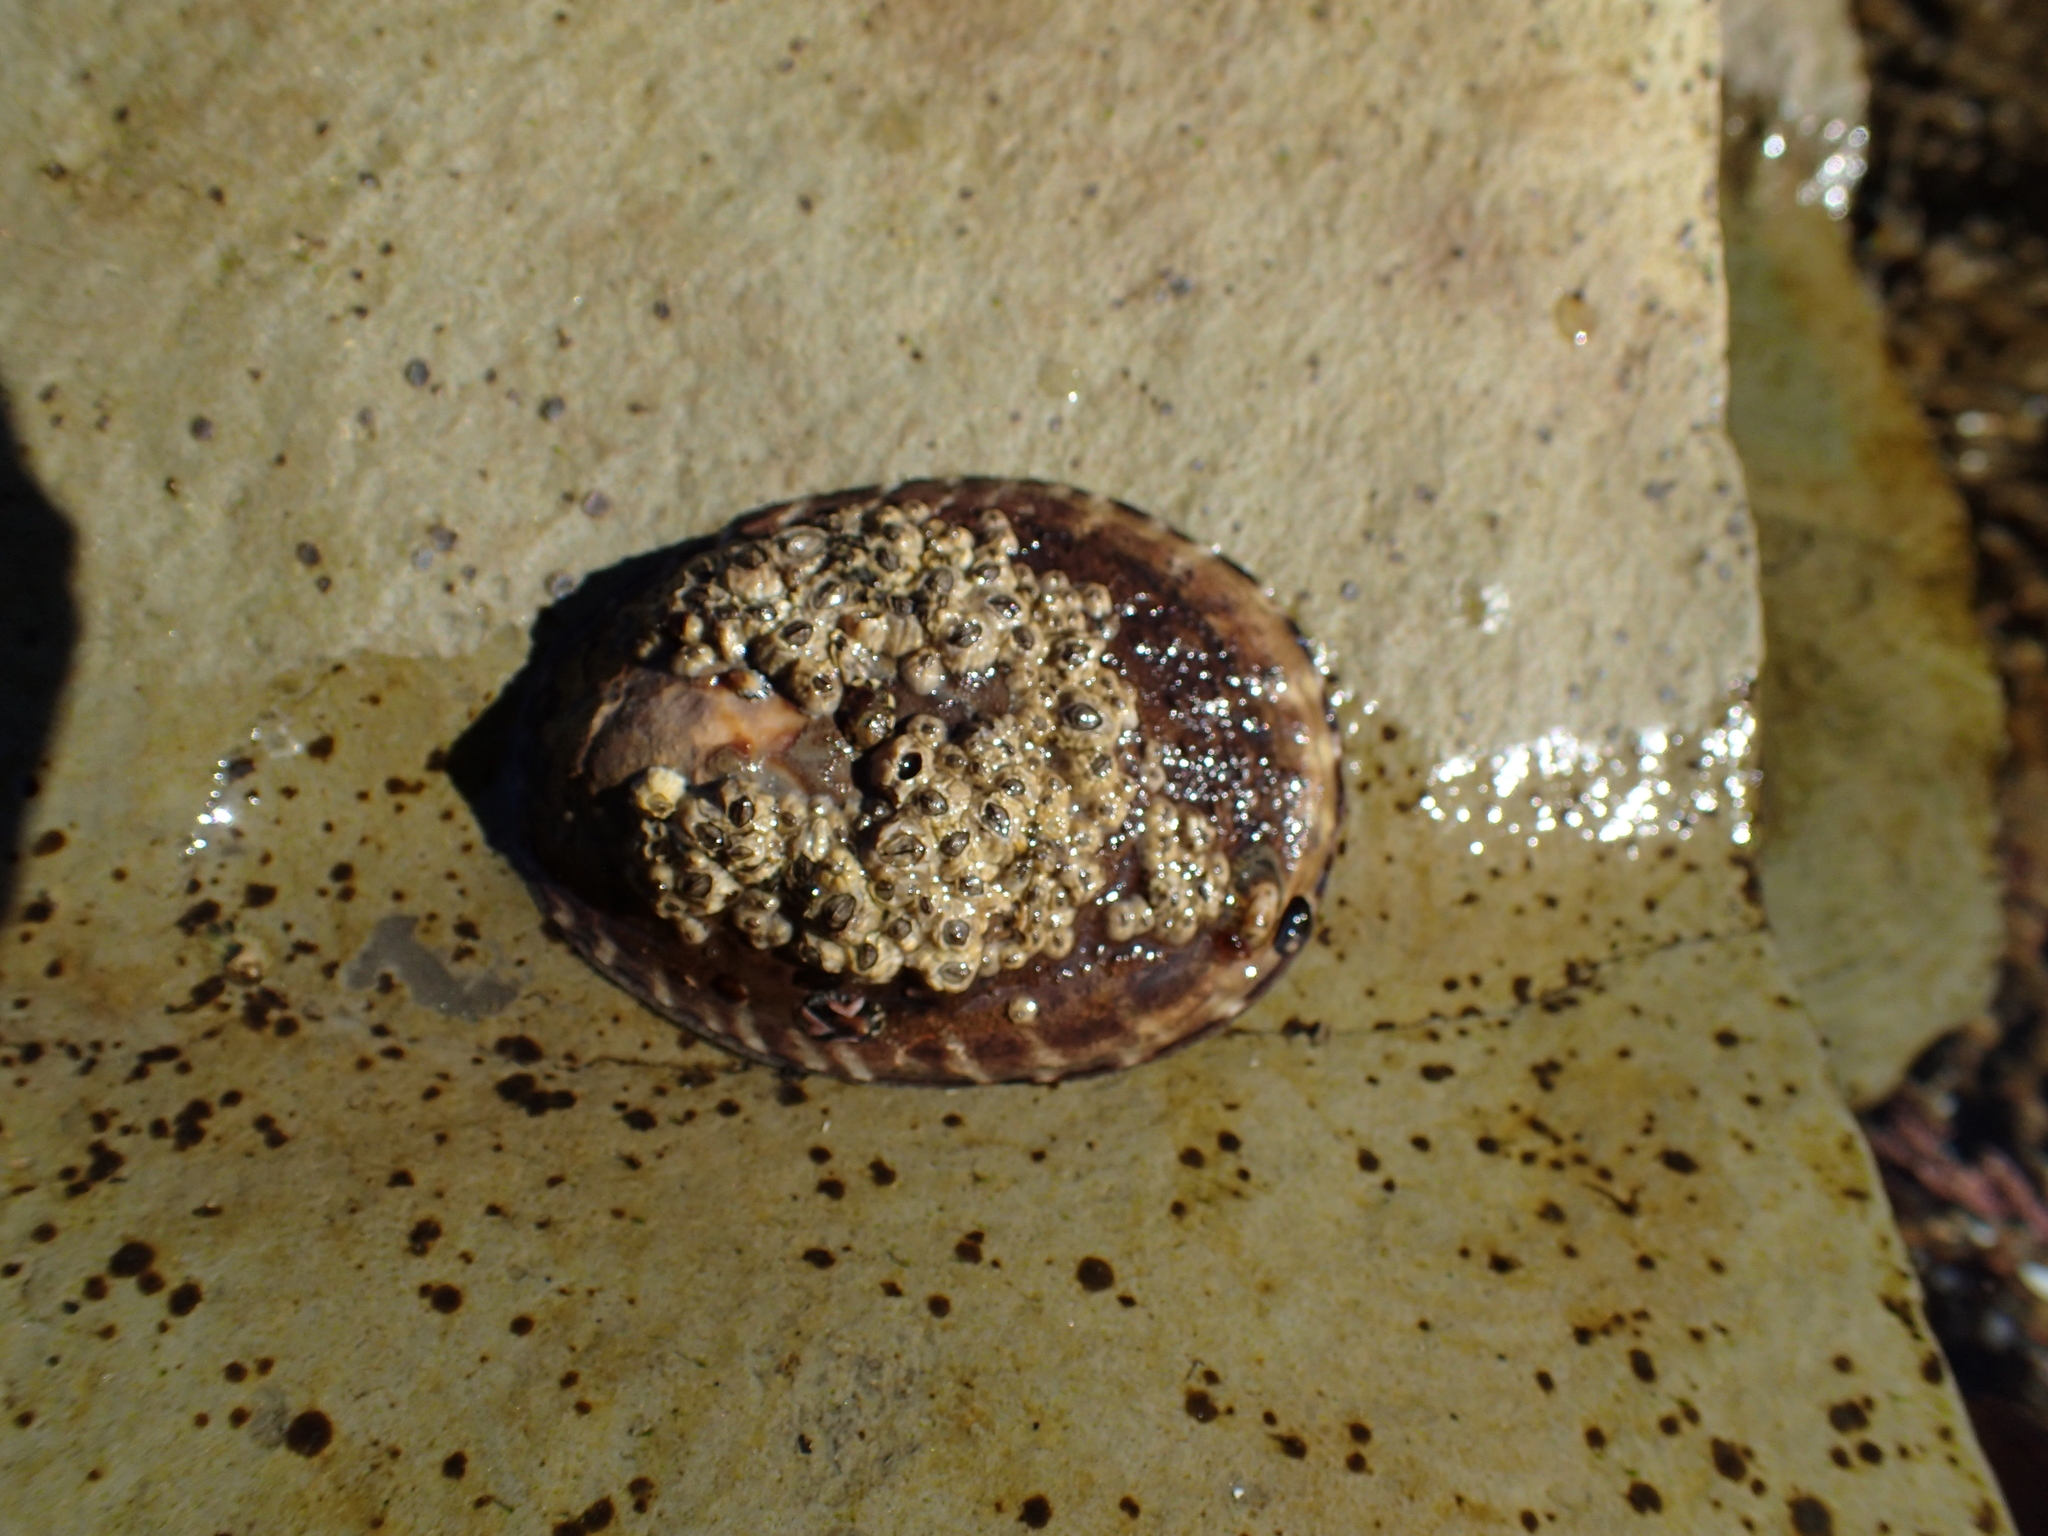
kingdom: Animalia
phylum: Mollusca
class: Gastropoda
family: Lottiidae
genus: Lottia
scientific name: Lottia gigantea
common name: Owl limpet
